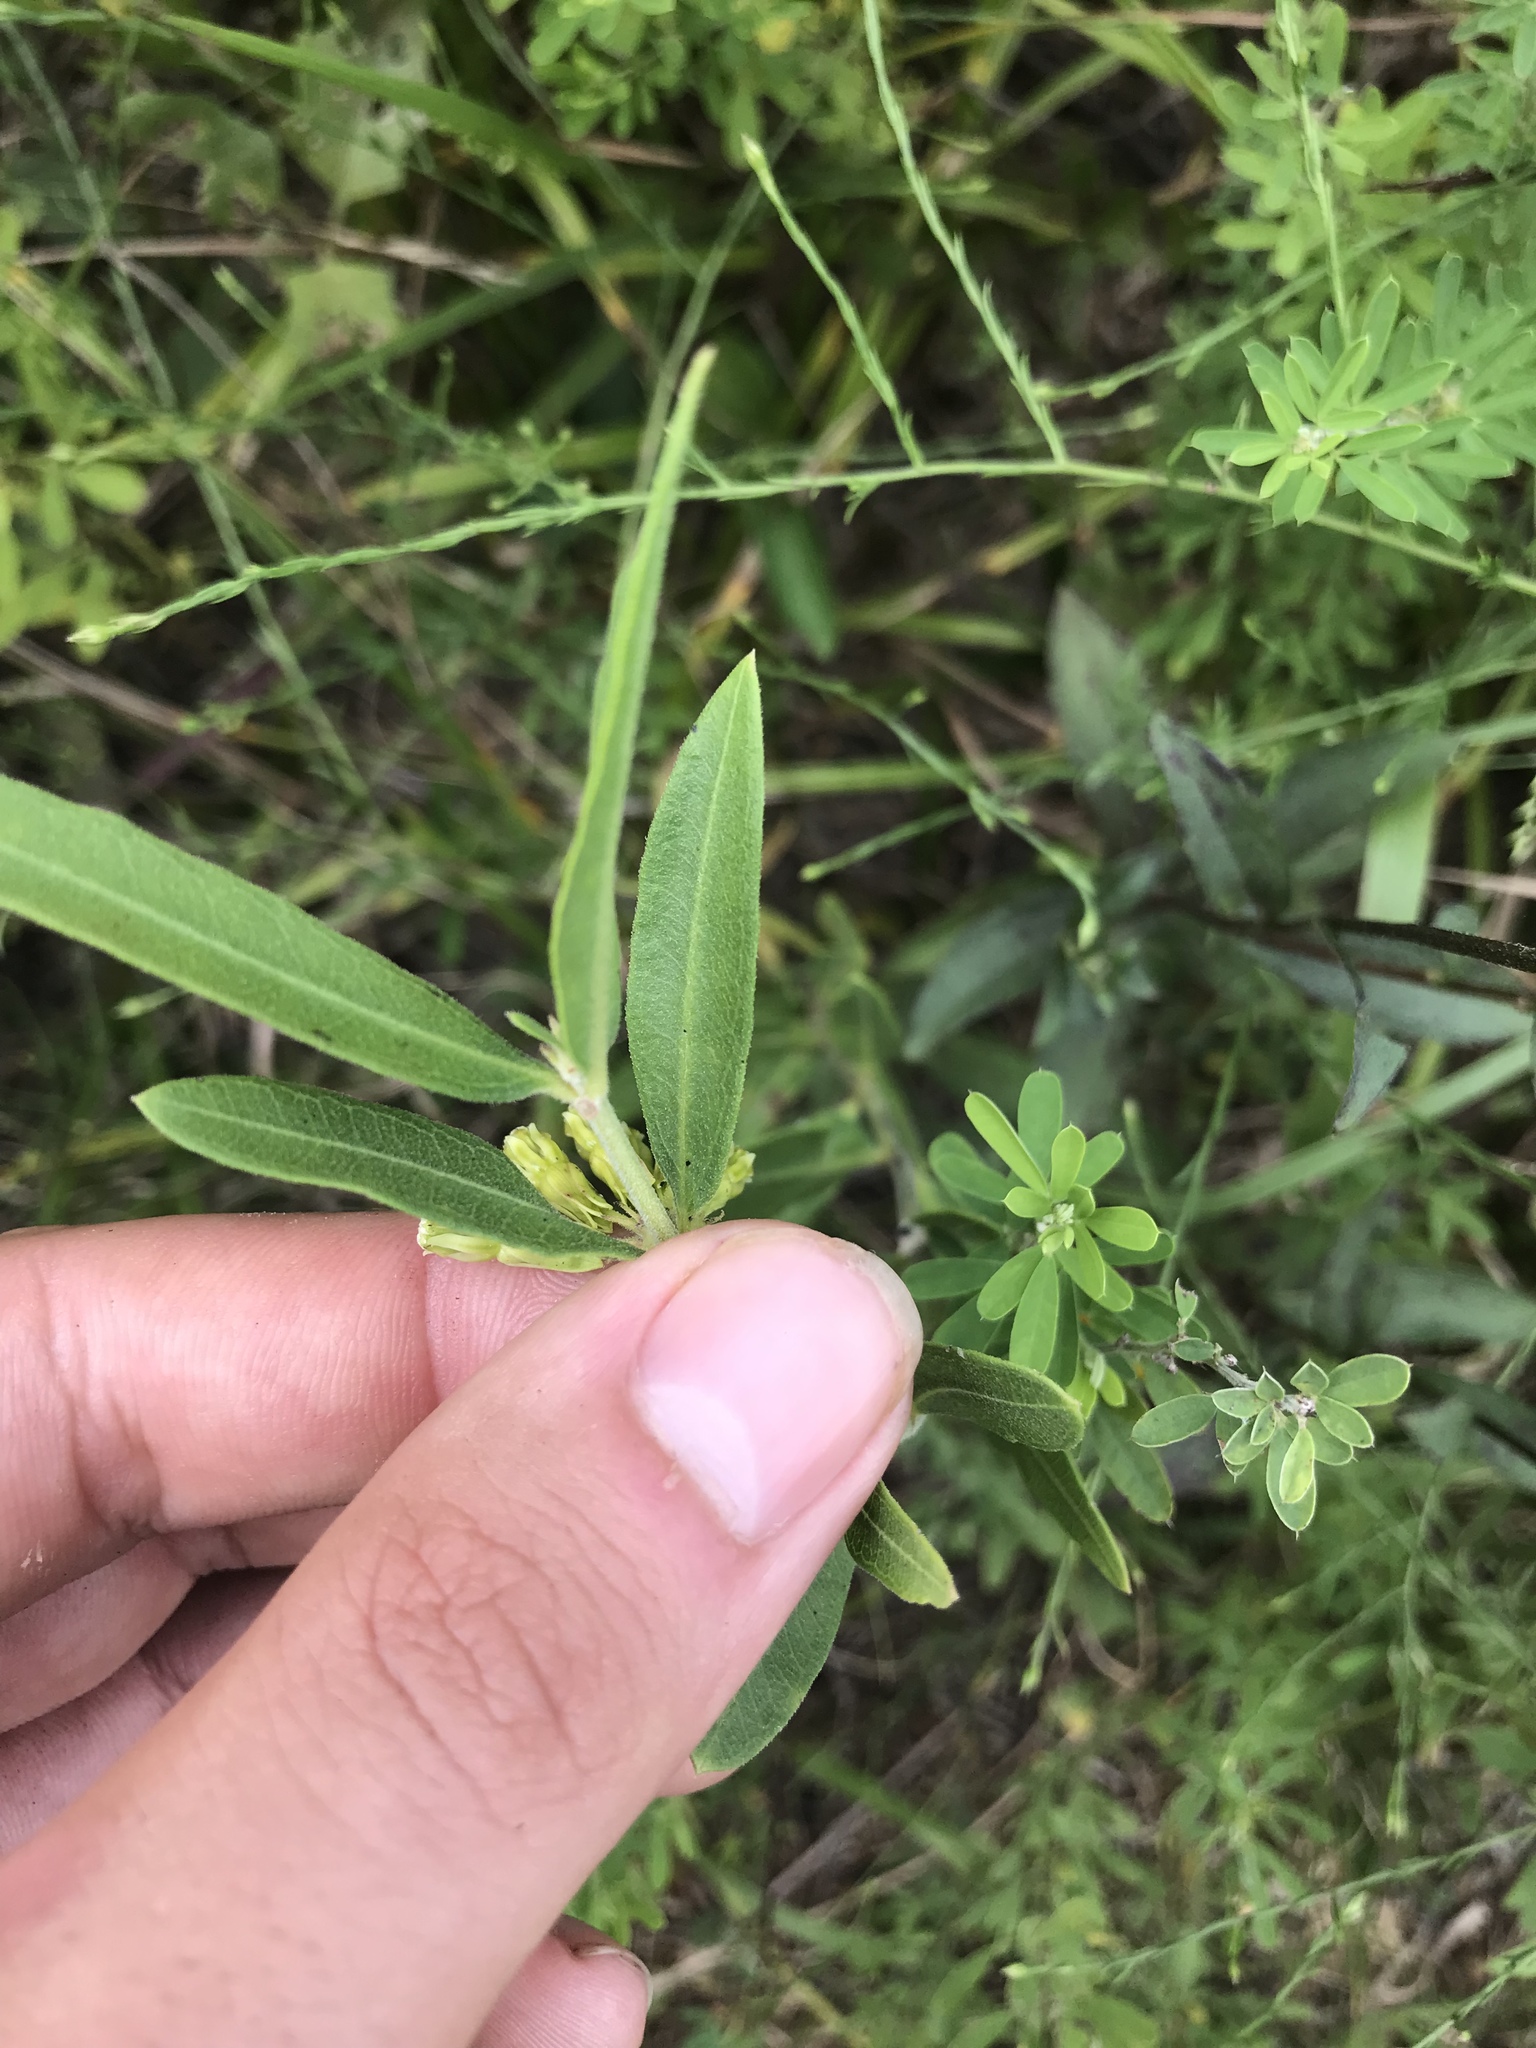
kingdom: Plantae
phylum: Tracheophyta
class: Magnoliopsida
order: Gentianales
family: Apocynaceae
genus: Asclepias
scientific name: Asclepias viridiflora
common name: Green comet milkweed
